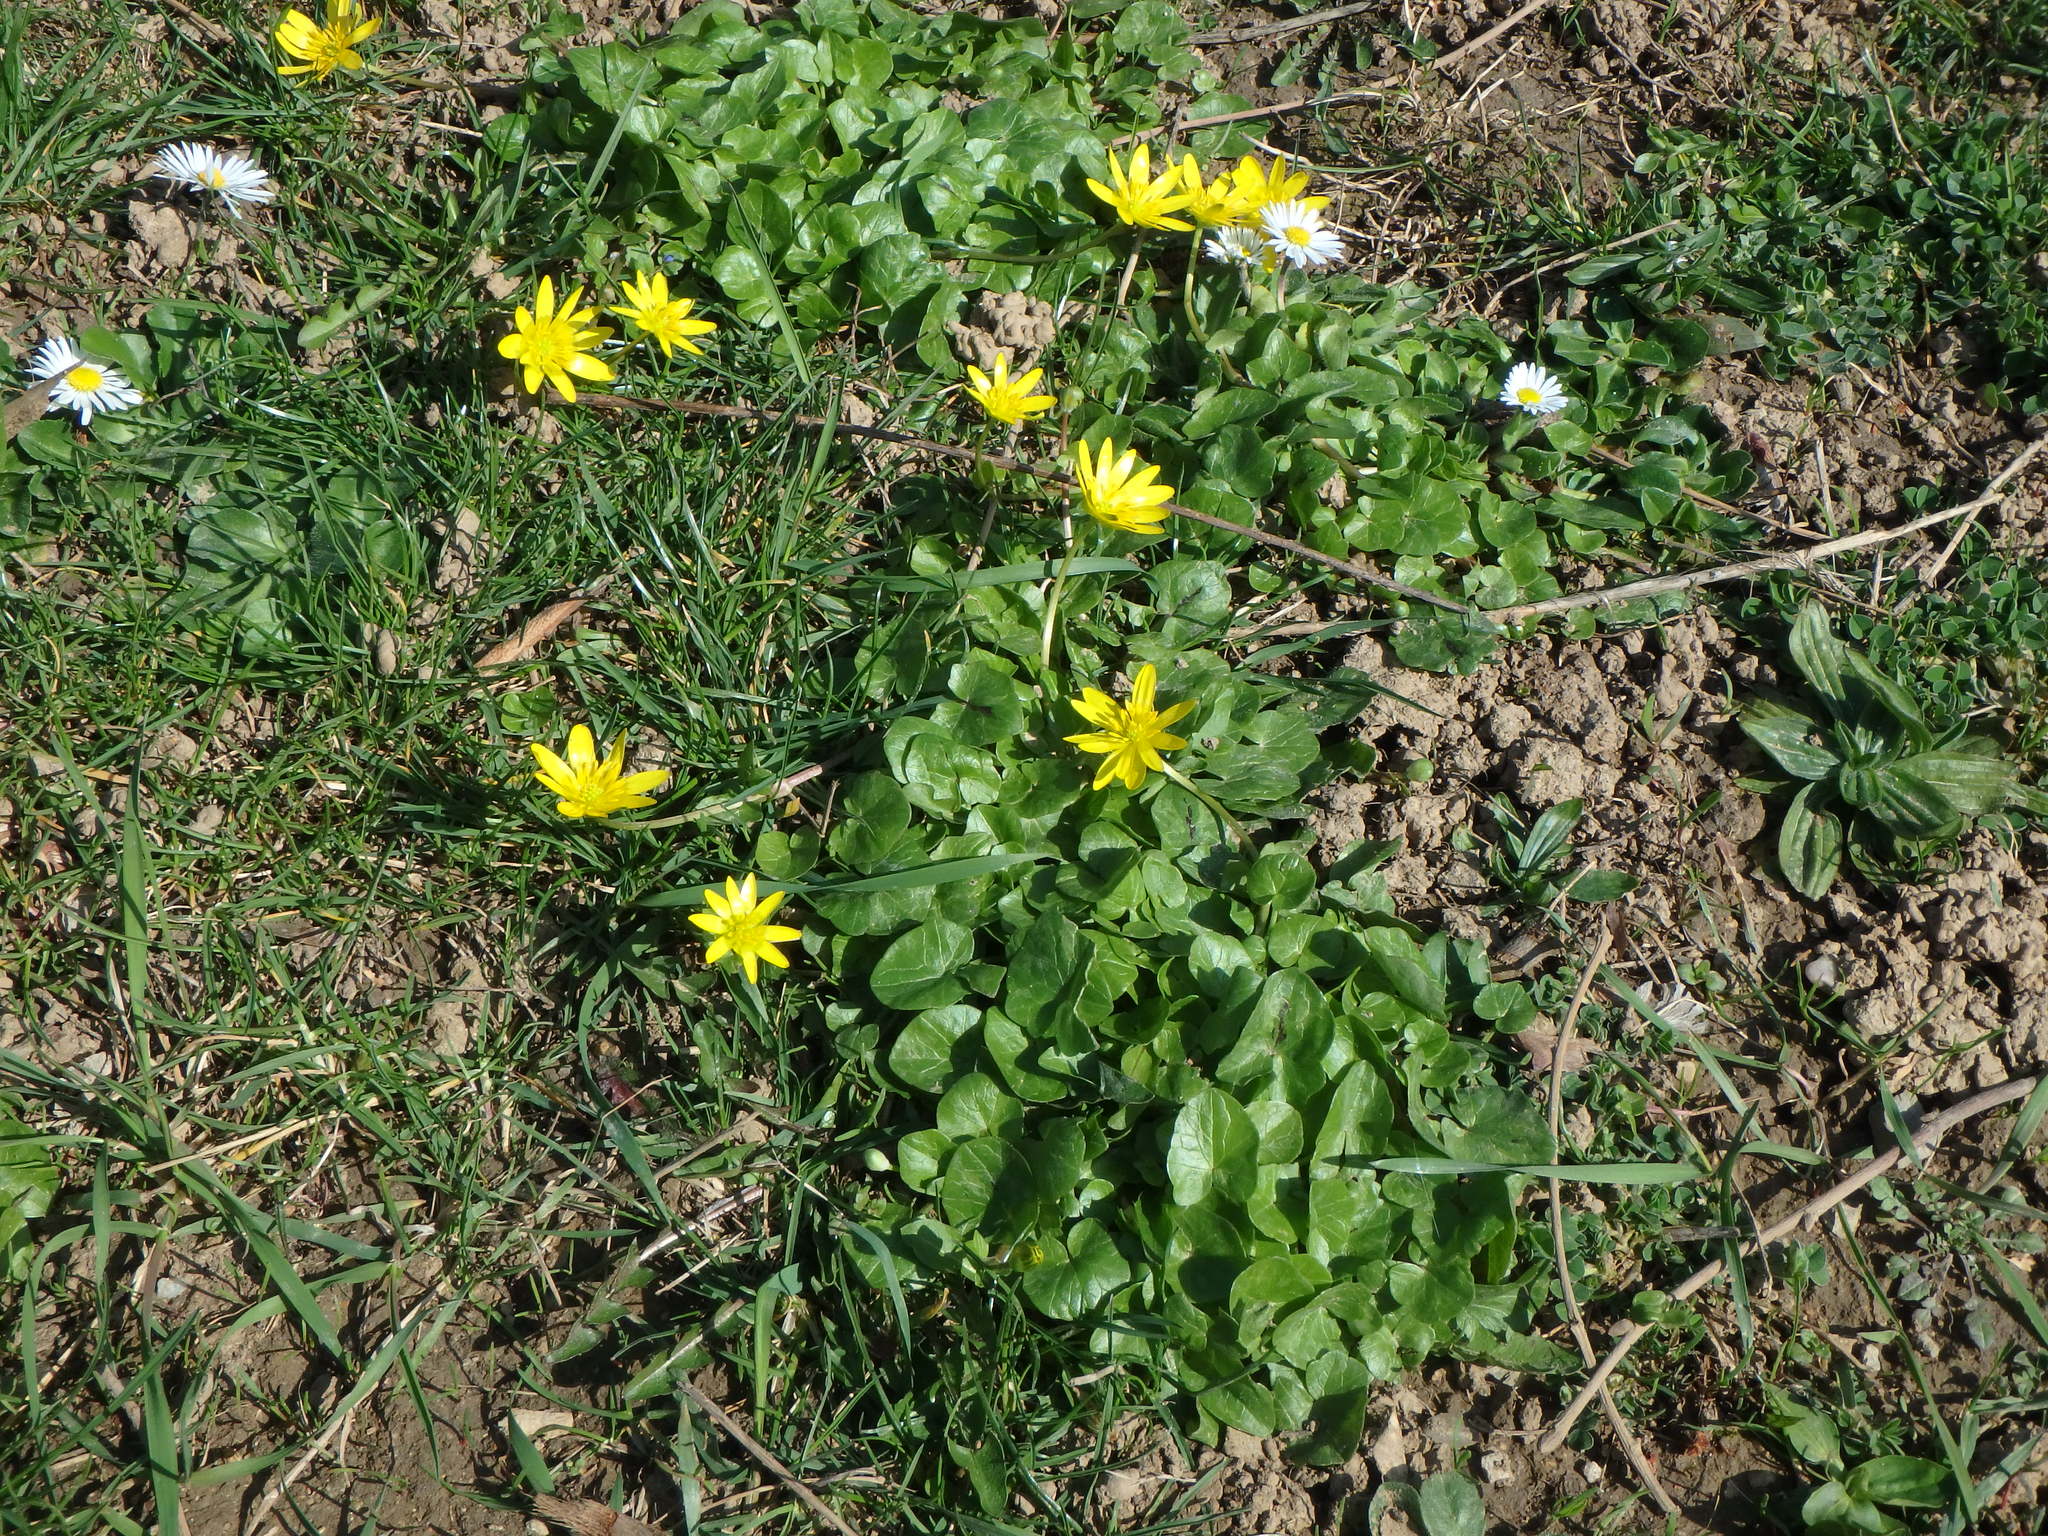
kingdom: Plantae
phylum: Tracheophyta
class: Magnoliopsida
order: Ranunculales
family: Ranunculaceae
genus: Ficaria
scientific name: Ficaria verna
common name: Lesser celandine
